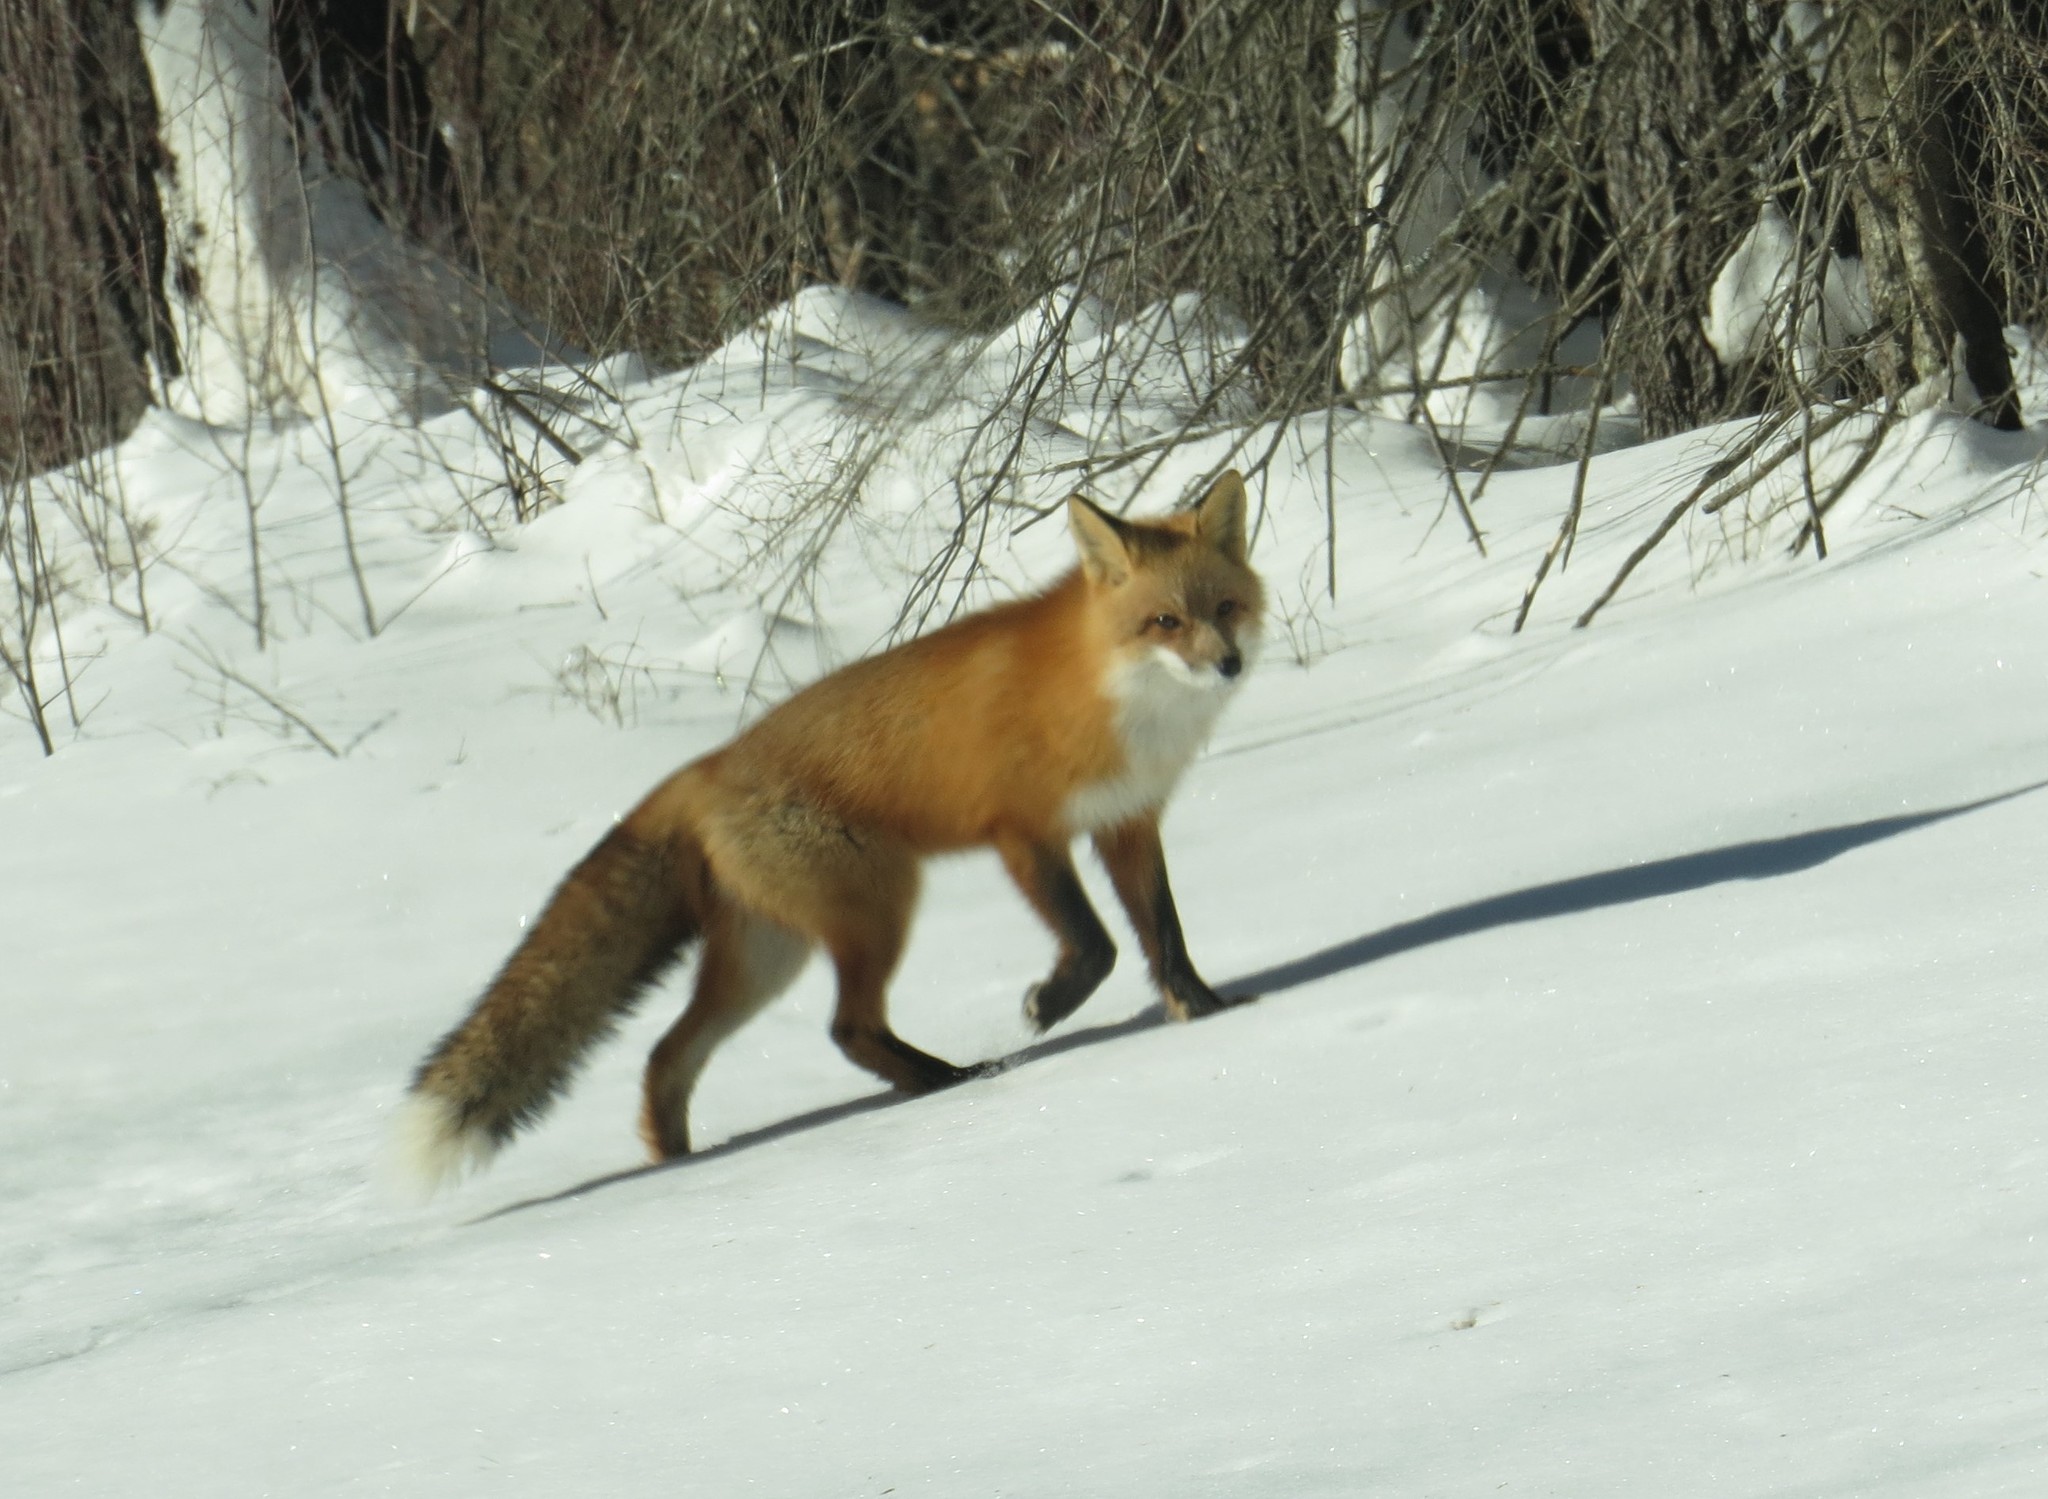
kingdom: Animalia
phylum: Chordata
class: Mammalia
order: Carnivora
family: Canidae
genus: Vulpes
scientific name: Vulpes vulpes
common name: Red fox
